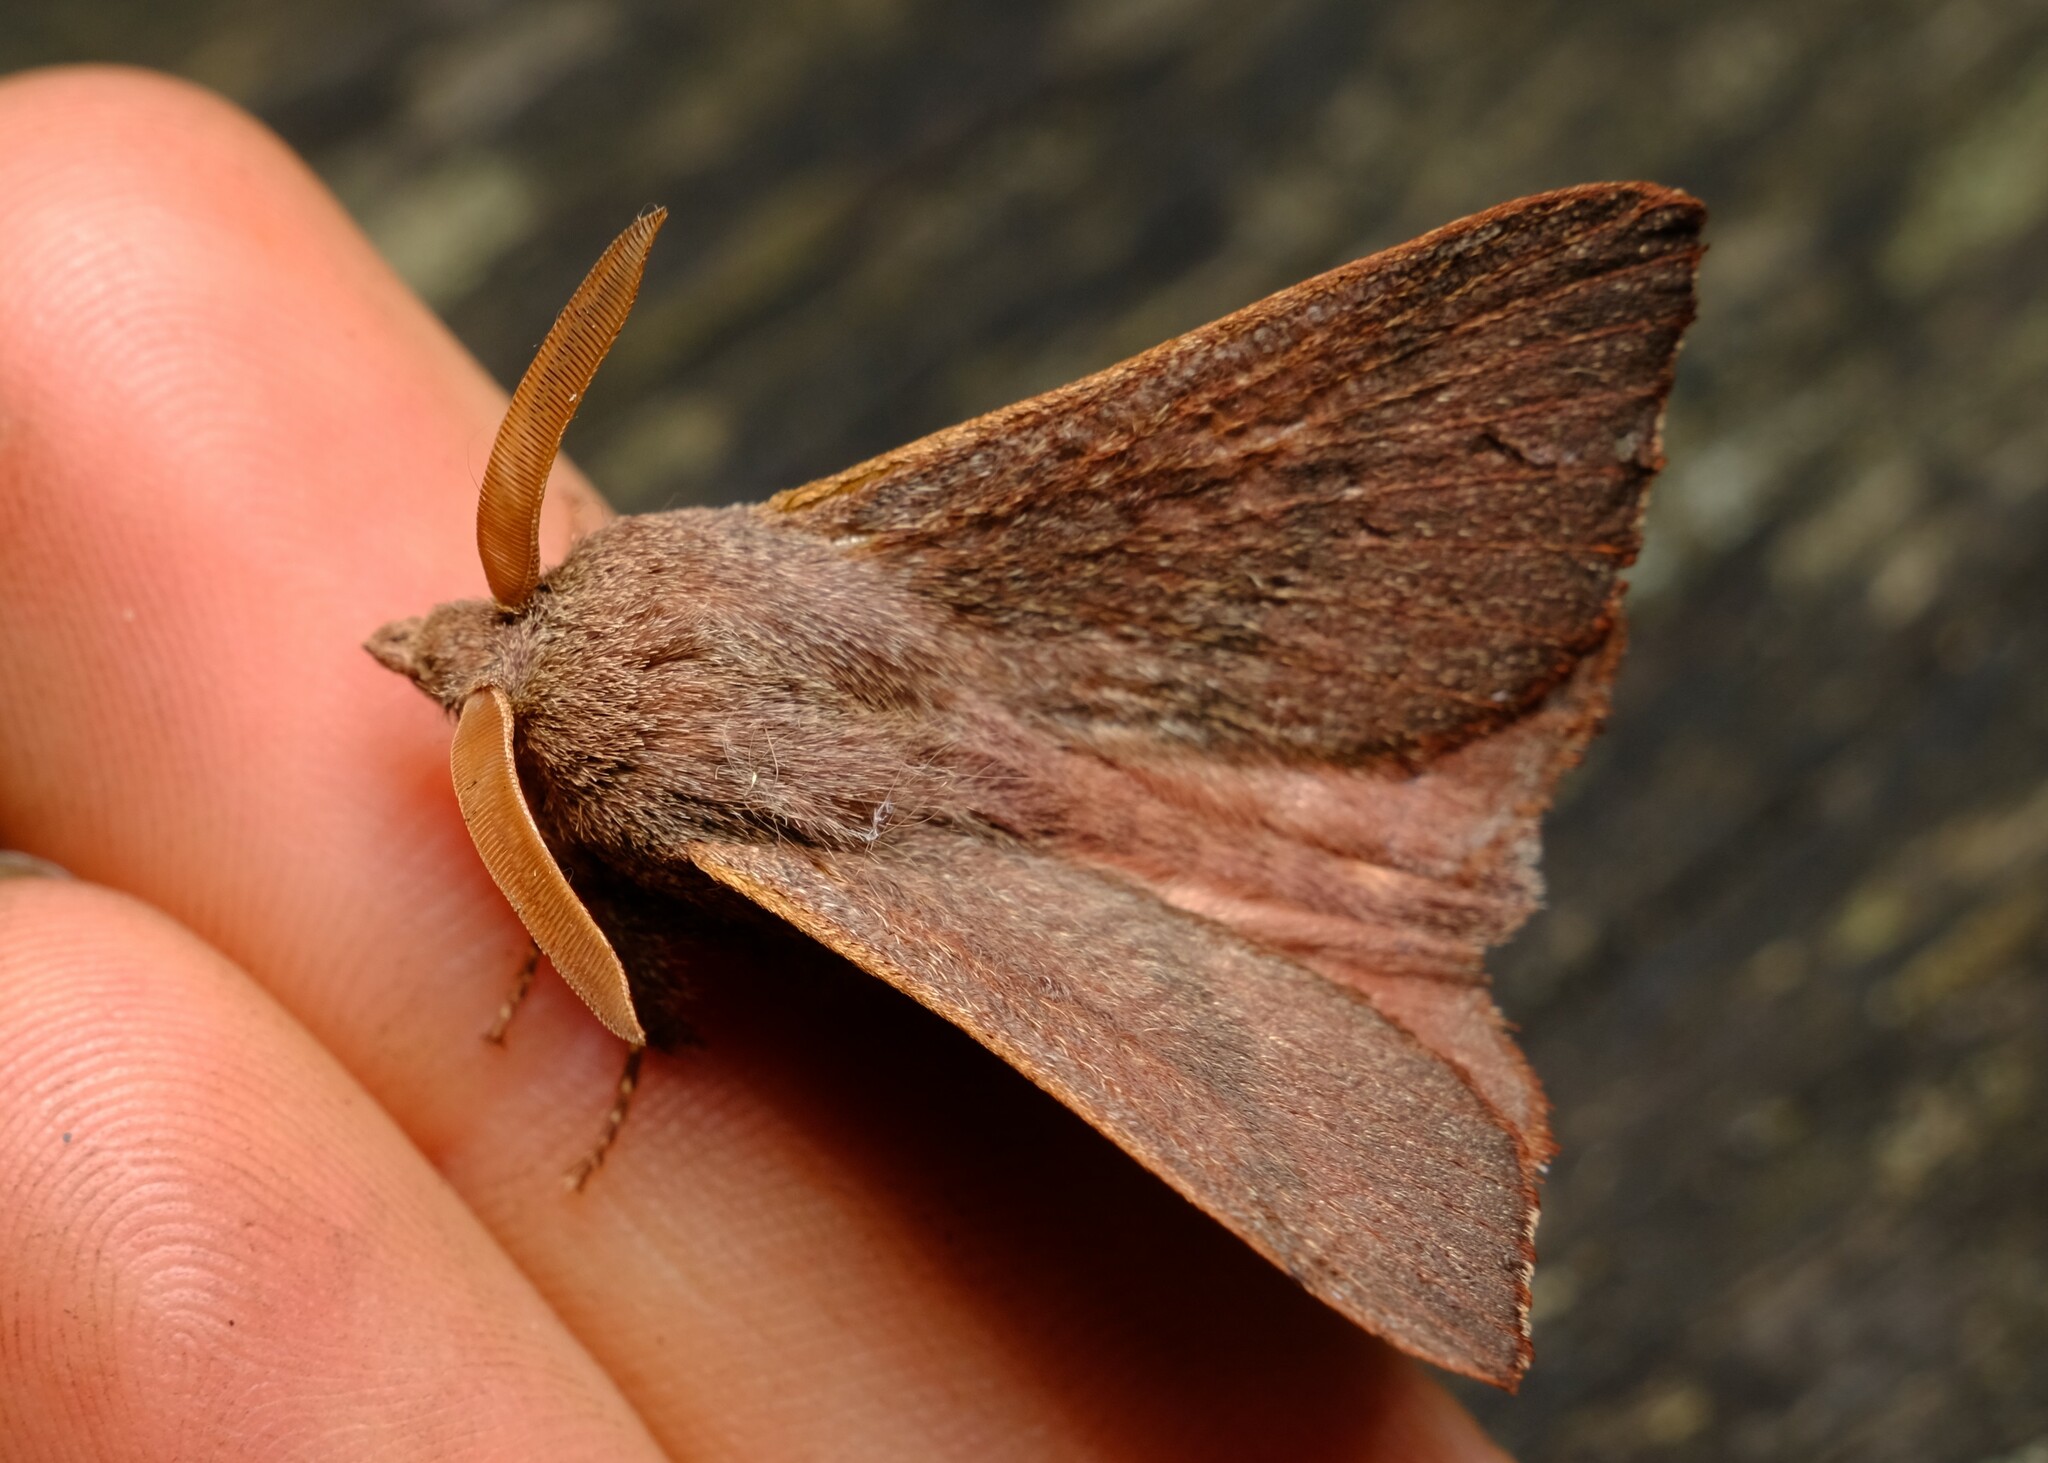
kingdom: Animalia
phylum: Arthropoda
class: Insecta
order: Lepidoptera
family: Lasiocampidae
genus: Pararguda
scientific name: Pararguda rufescens
